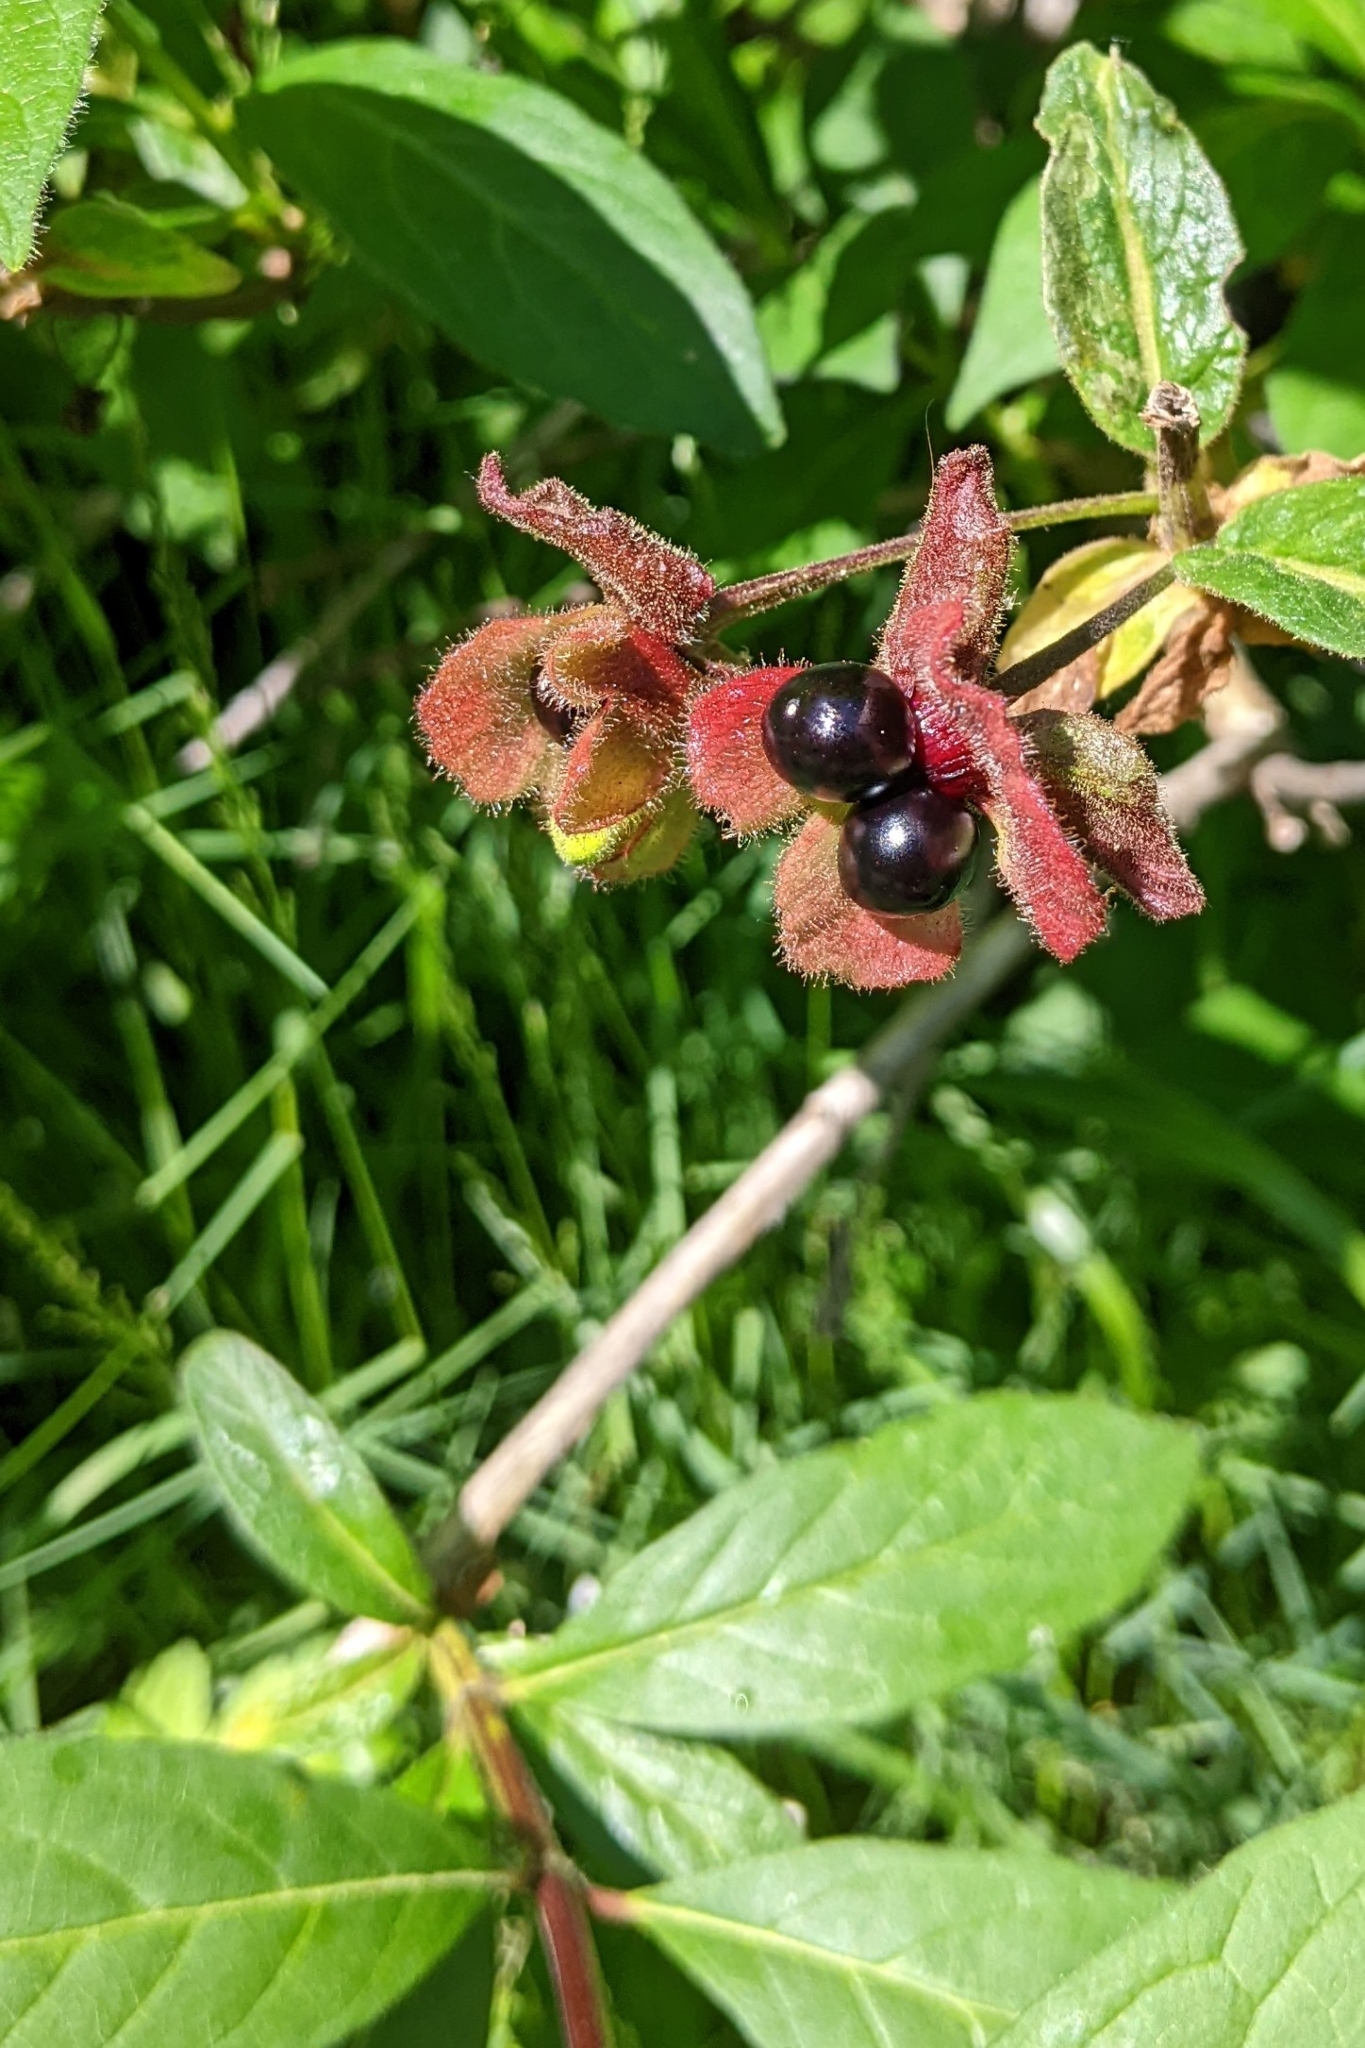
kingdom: Plantae
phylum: Tracheophyta
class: Magnoliopsida
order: Dipsacales
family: Caprifoliaceae
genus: Lonicera
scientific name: Lonicera involucrata
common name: Californian honeysuckle
